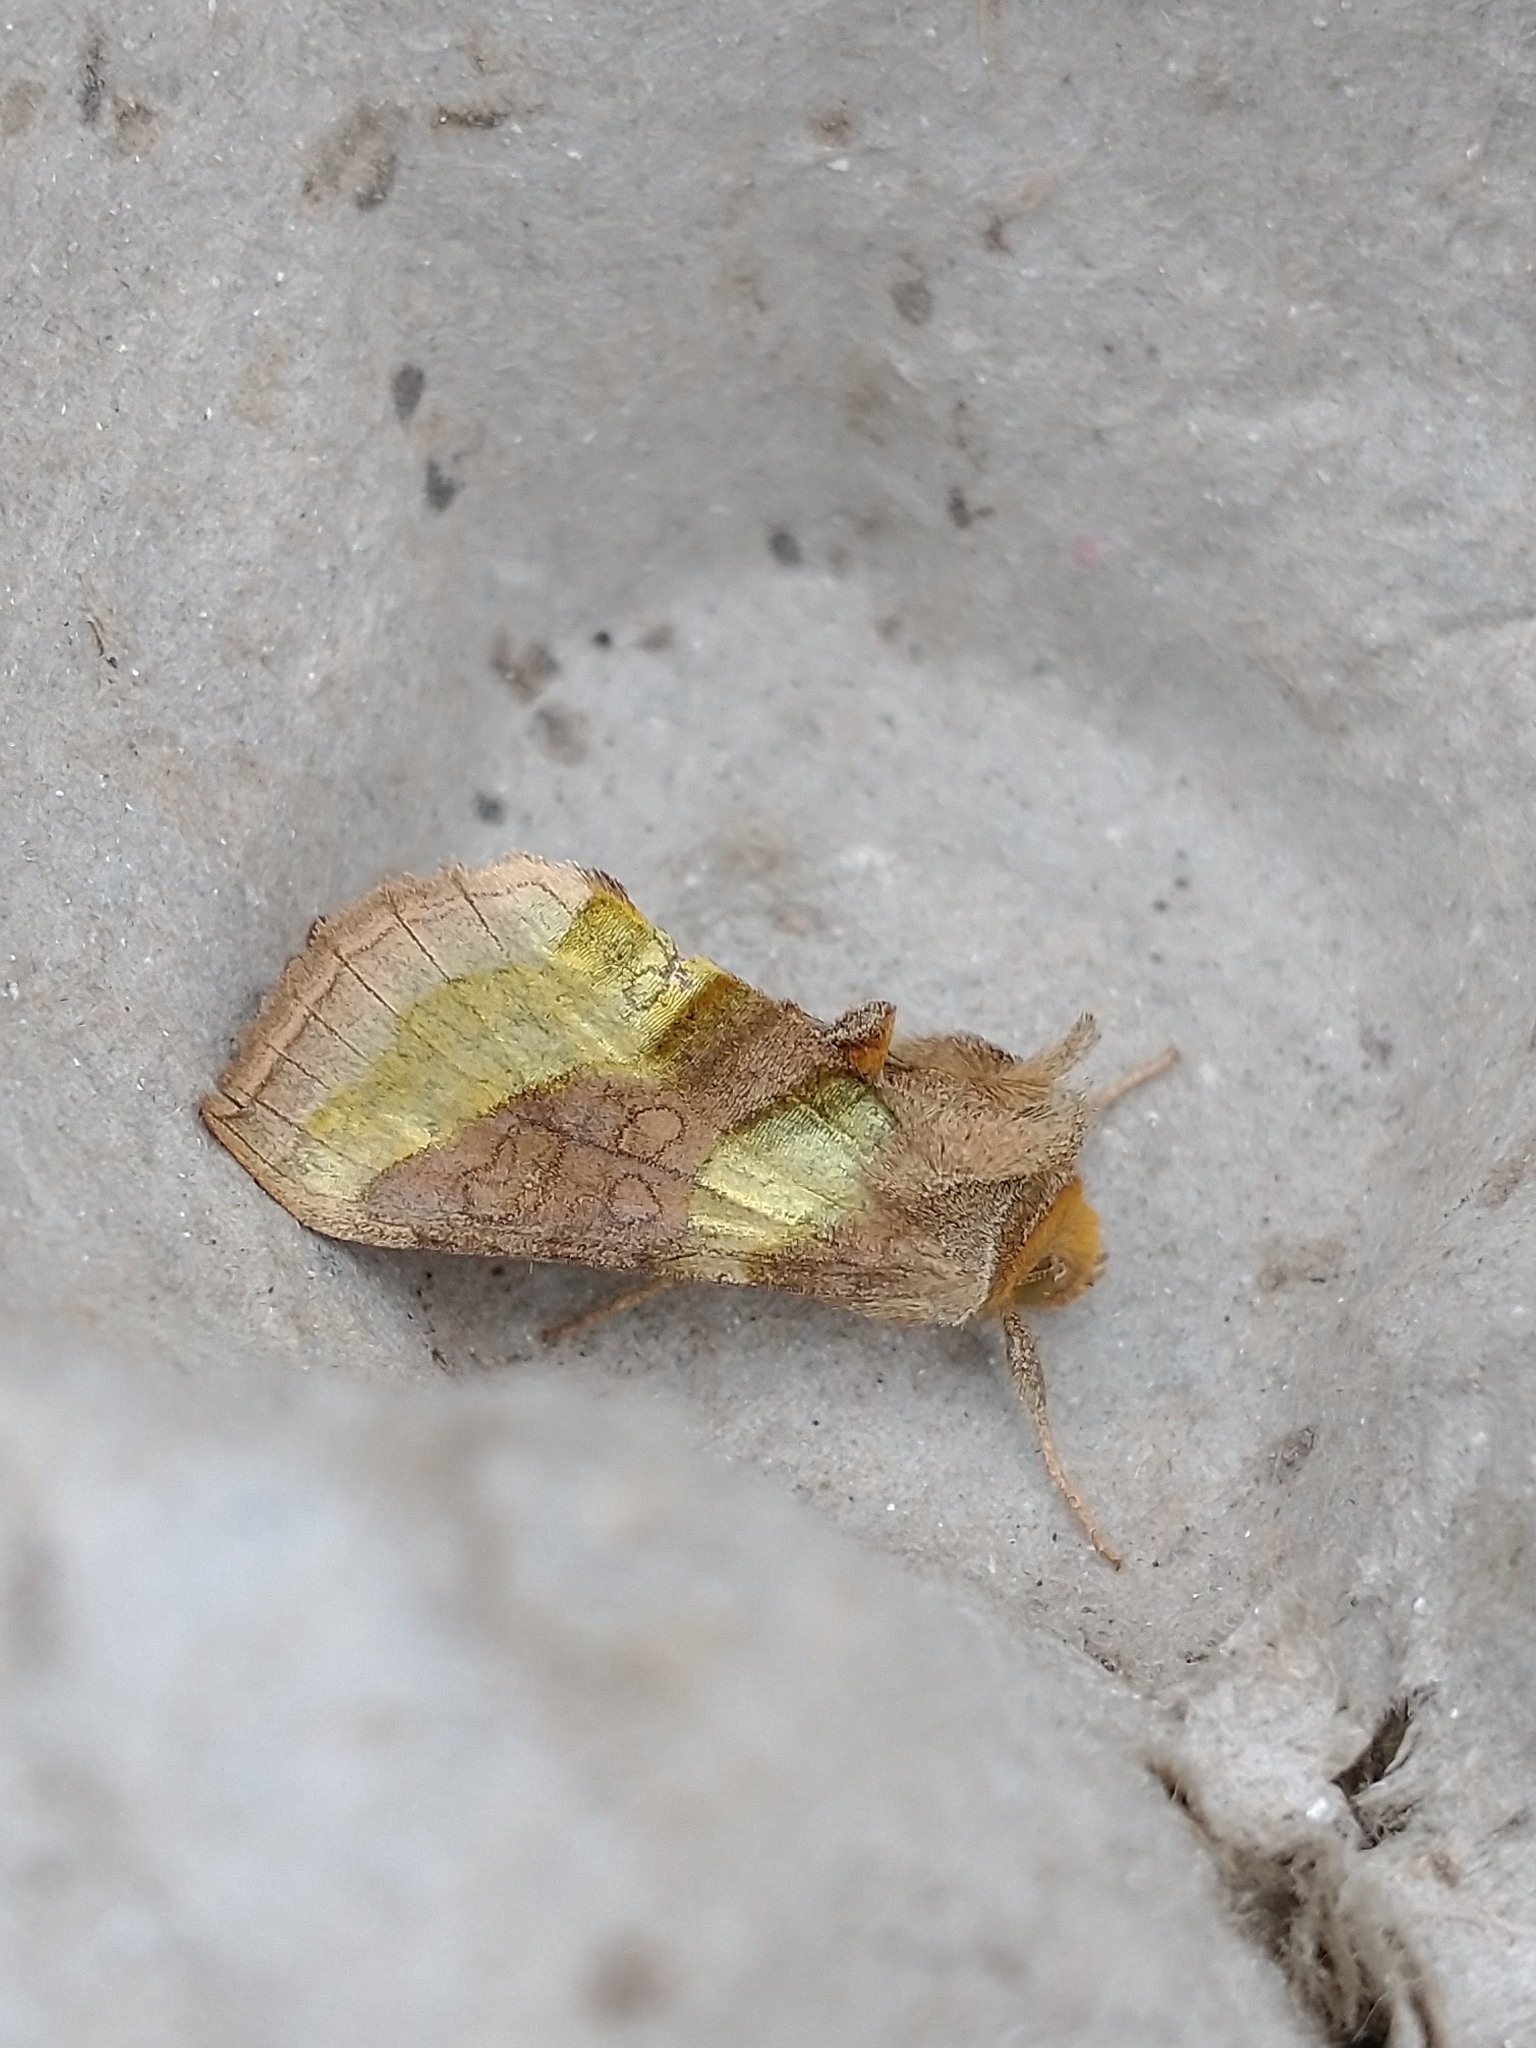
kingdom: Animalia
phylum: Arthropoda
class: Insecta
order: Lepidoptera
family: Noctuidae
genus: Diachrysia
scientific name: Diachrysia chrysitis
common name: Burnished brass
